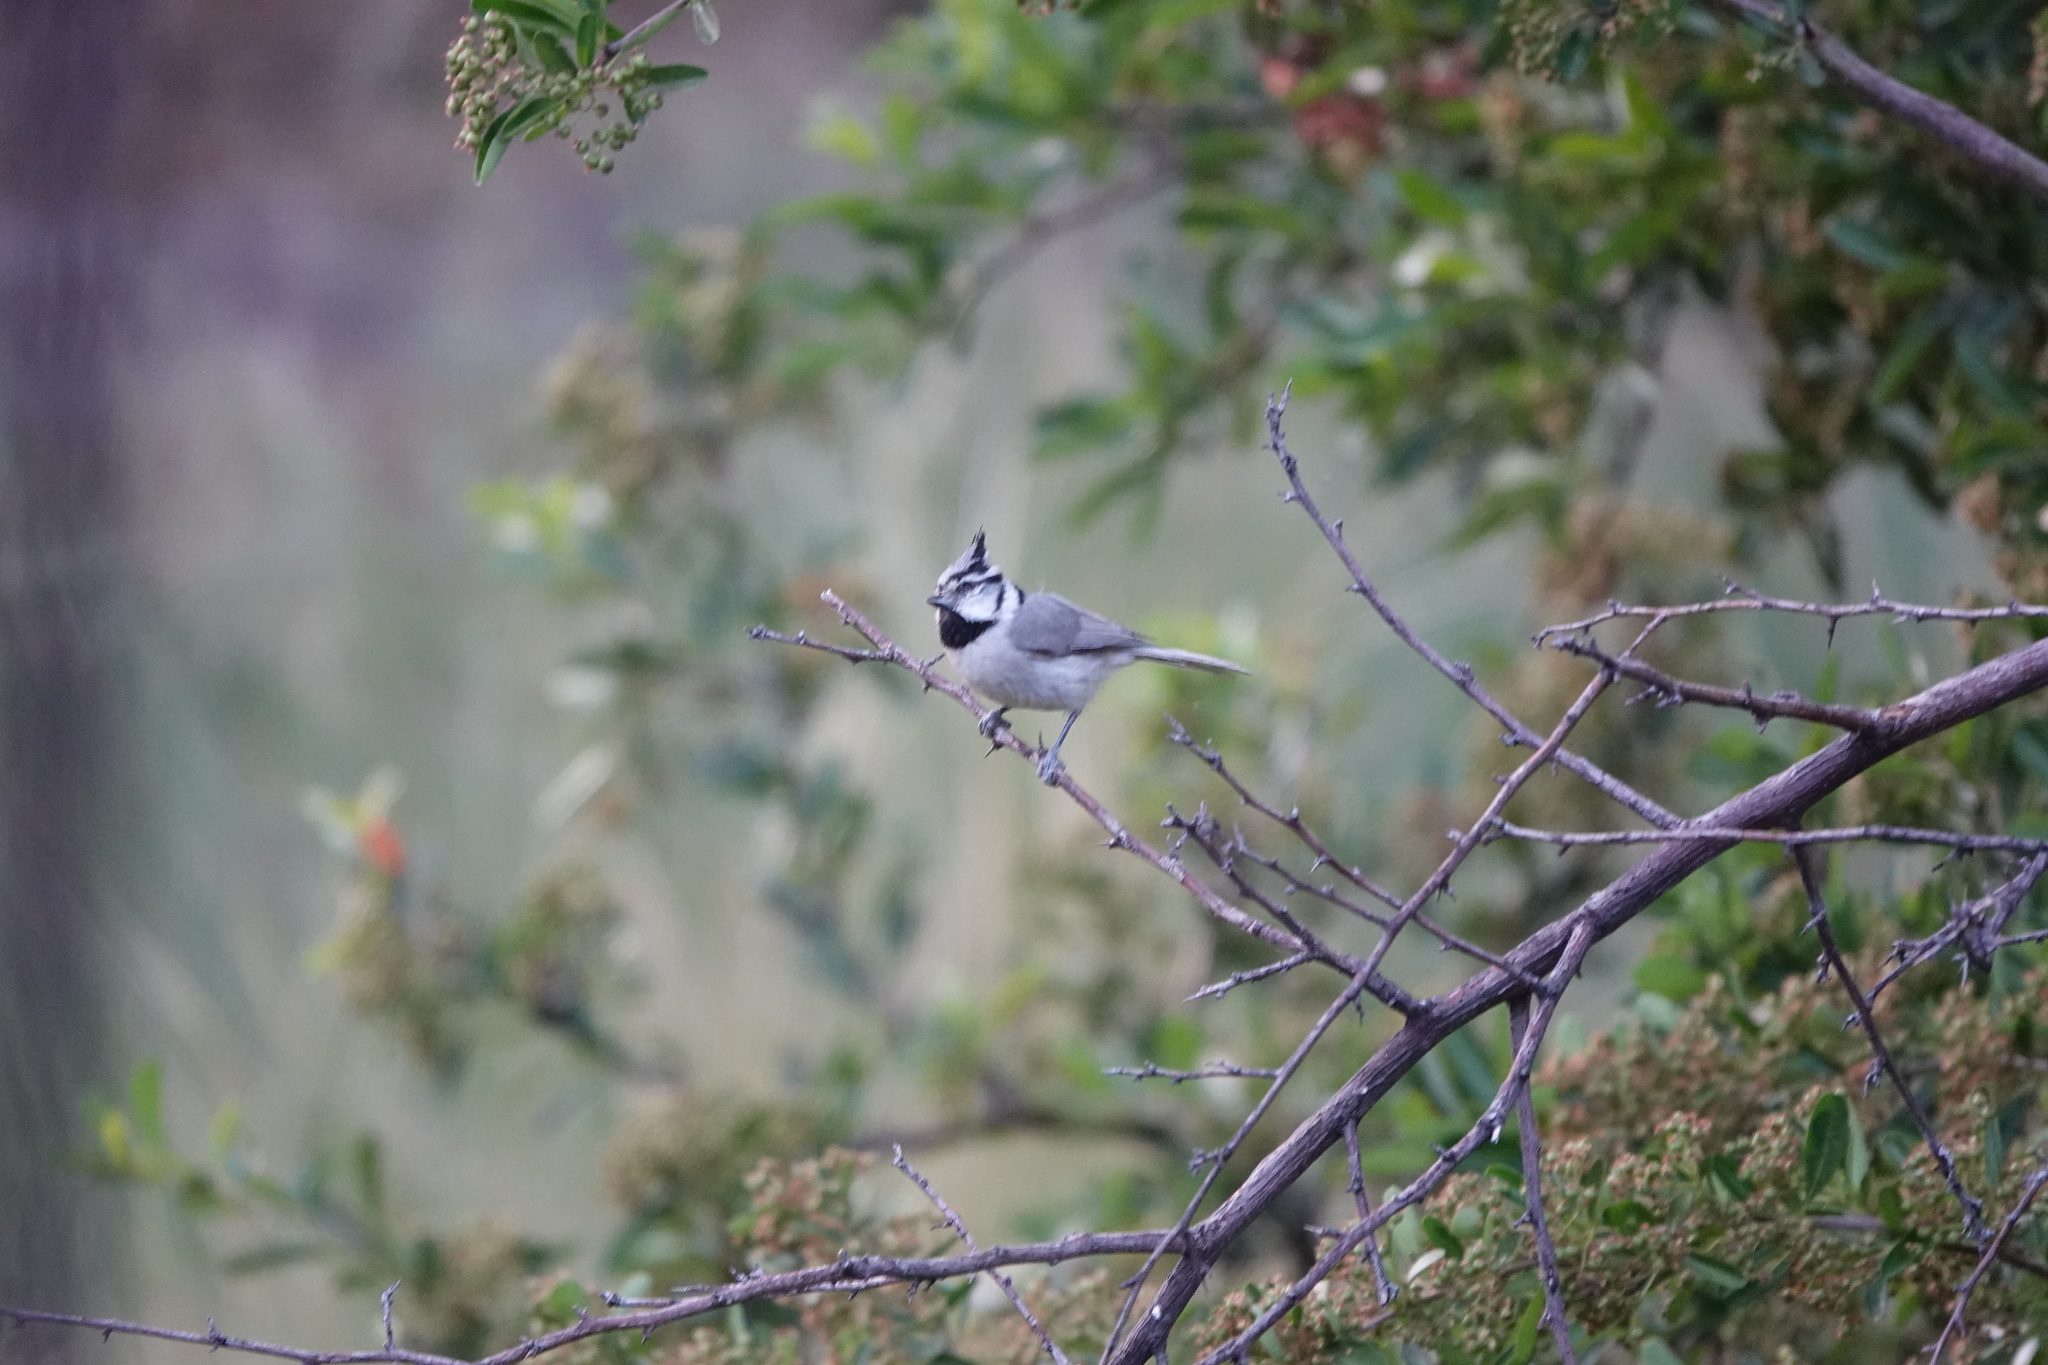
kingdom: Animalia
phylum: Chordata
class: Aves
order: Passeriformes
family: Paridae
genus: Baeolophus
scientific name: Baeolophus wollweberi
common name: Bridled titmouse
